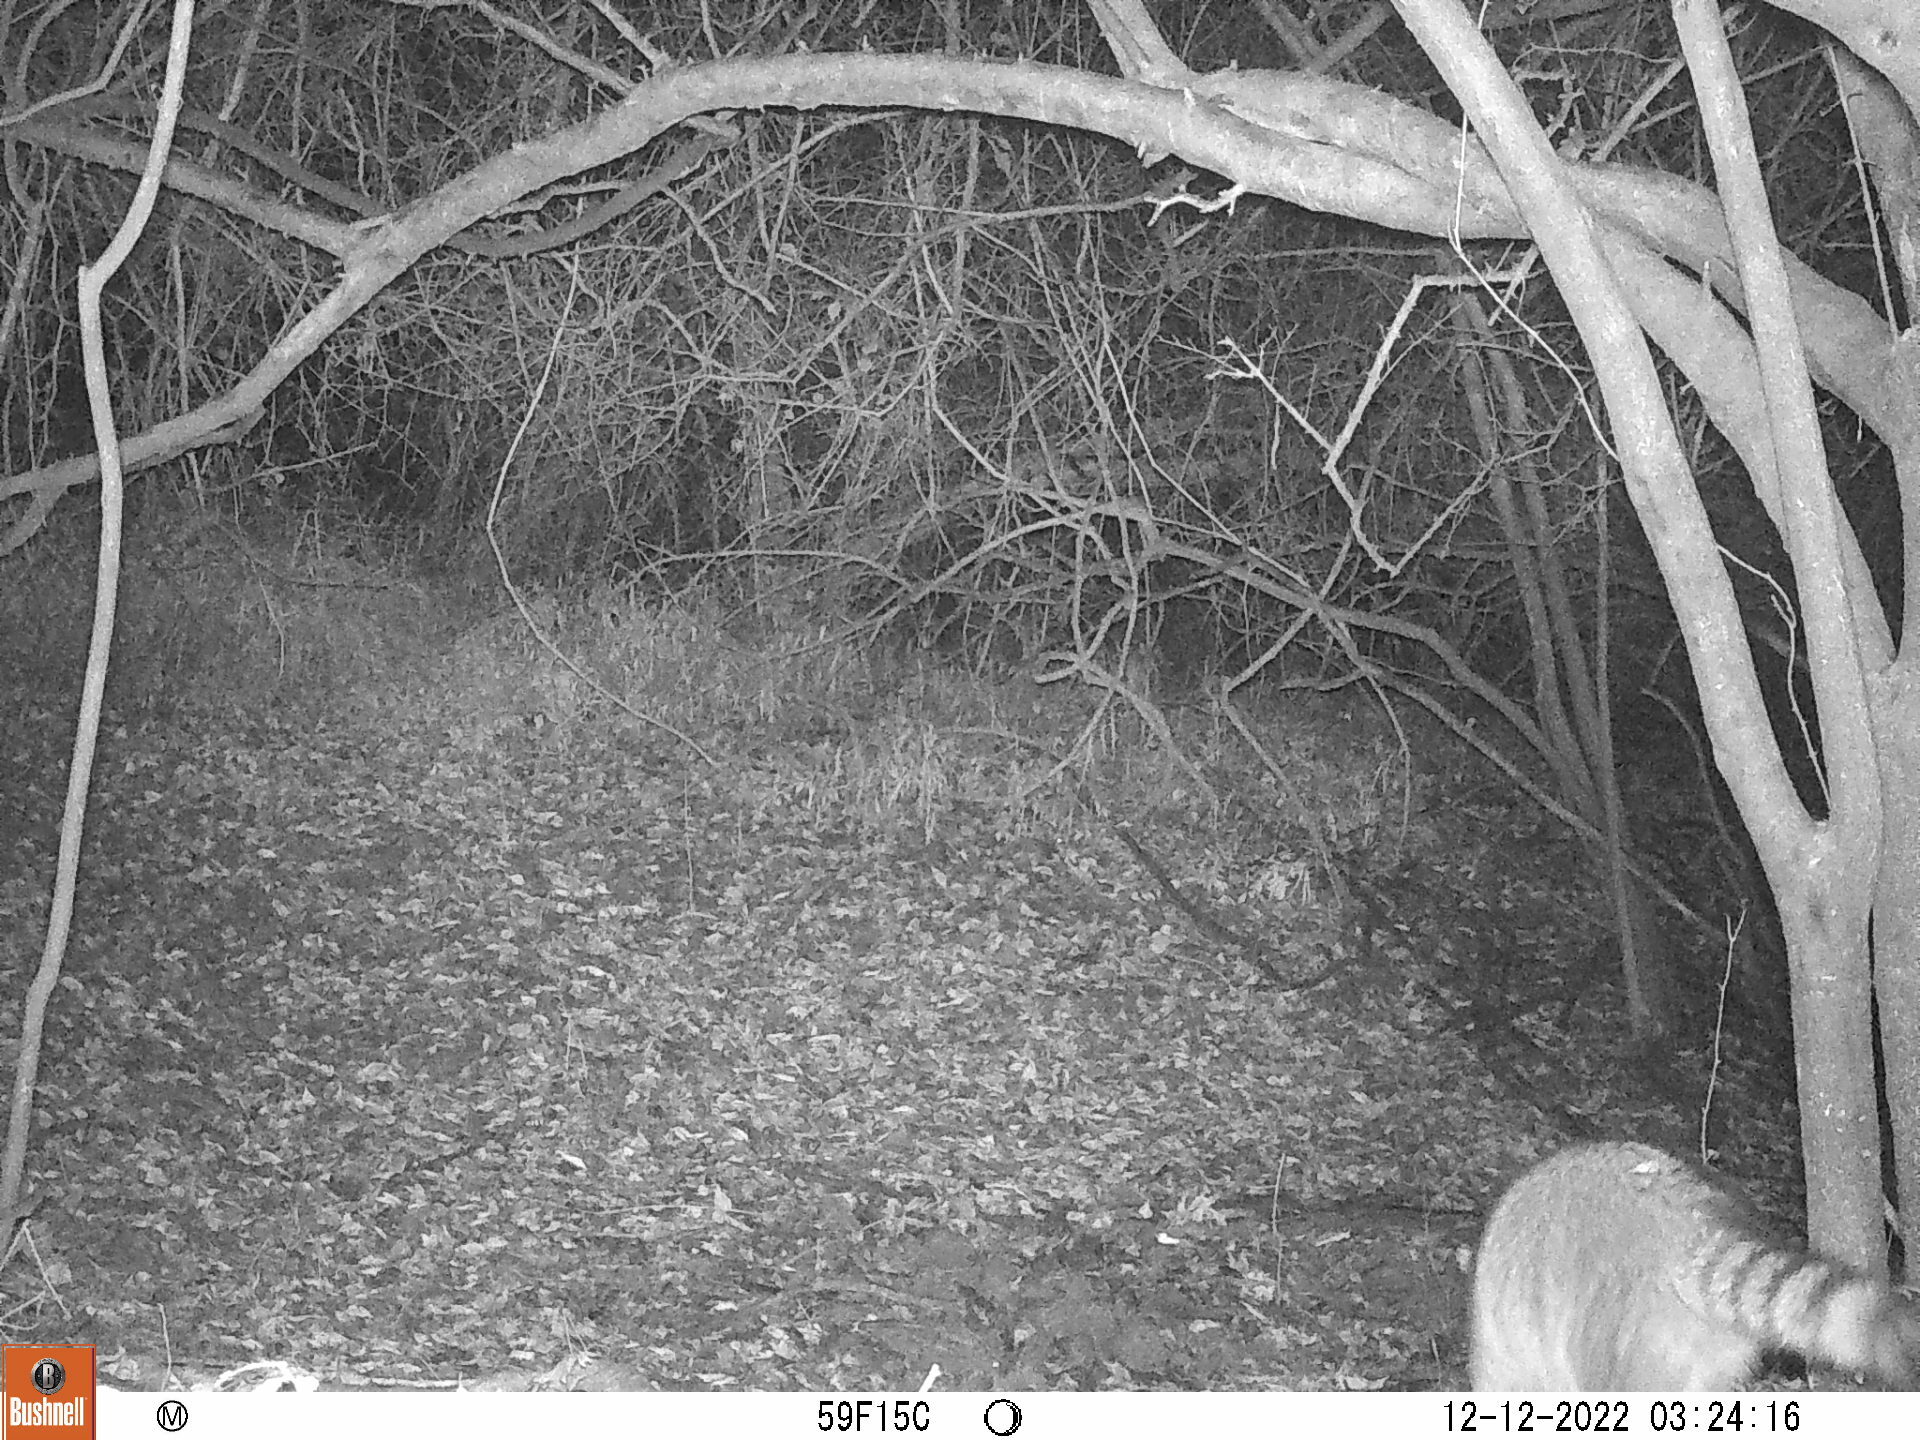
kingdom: Animalia
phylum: Chordata
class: Mammalia
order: Carnivora
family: Procyonidae
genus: Procyon
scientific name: Procyon lotor
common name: Raccoon
